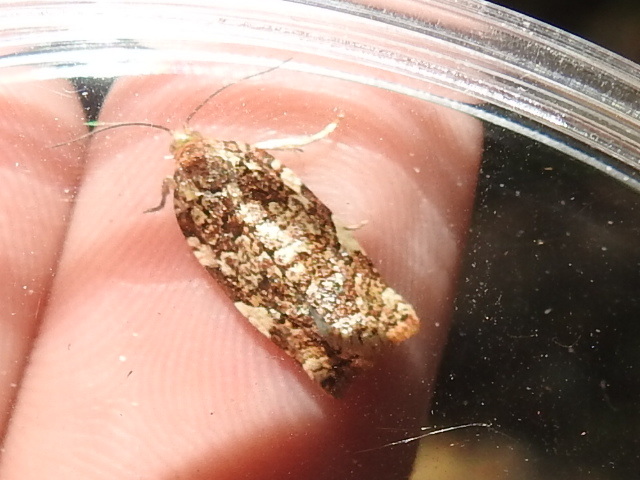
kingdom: Animalia
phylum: Arthropoda
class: Insecta
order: Lepidoptera
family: Tortricidae
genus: Archips
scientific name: Archips argyrospila
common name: Fruit-tree leafroller moth
